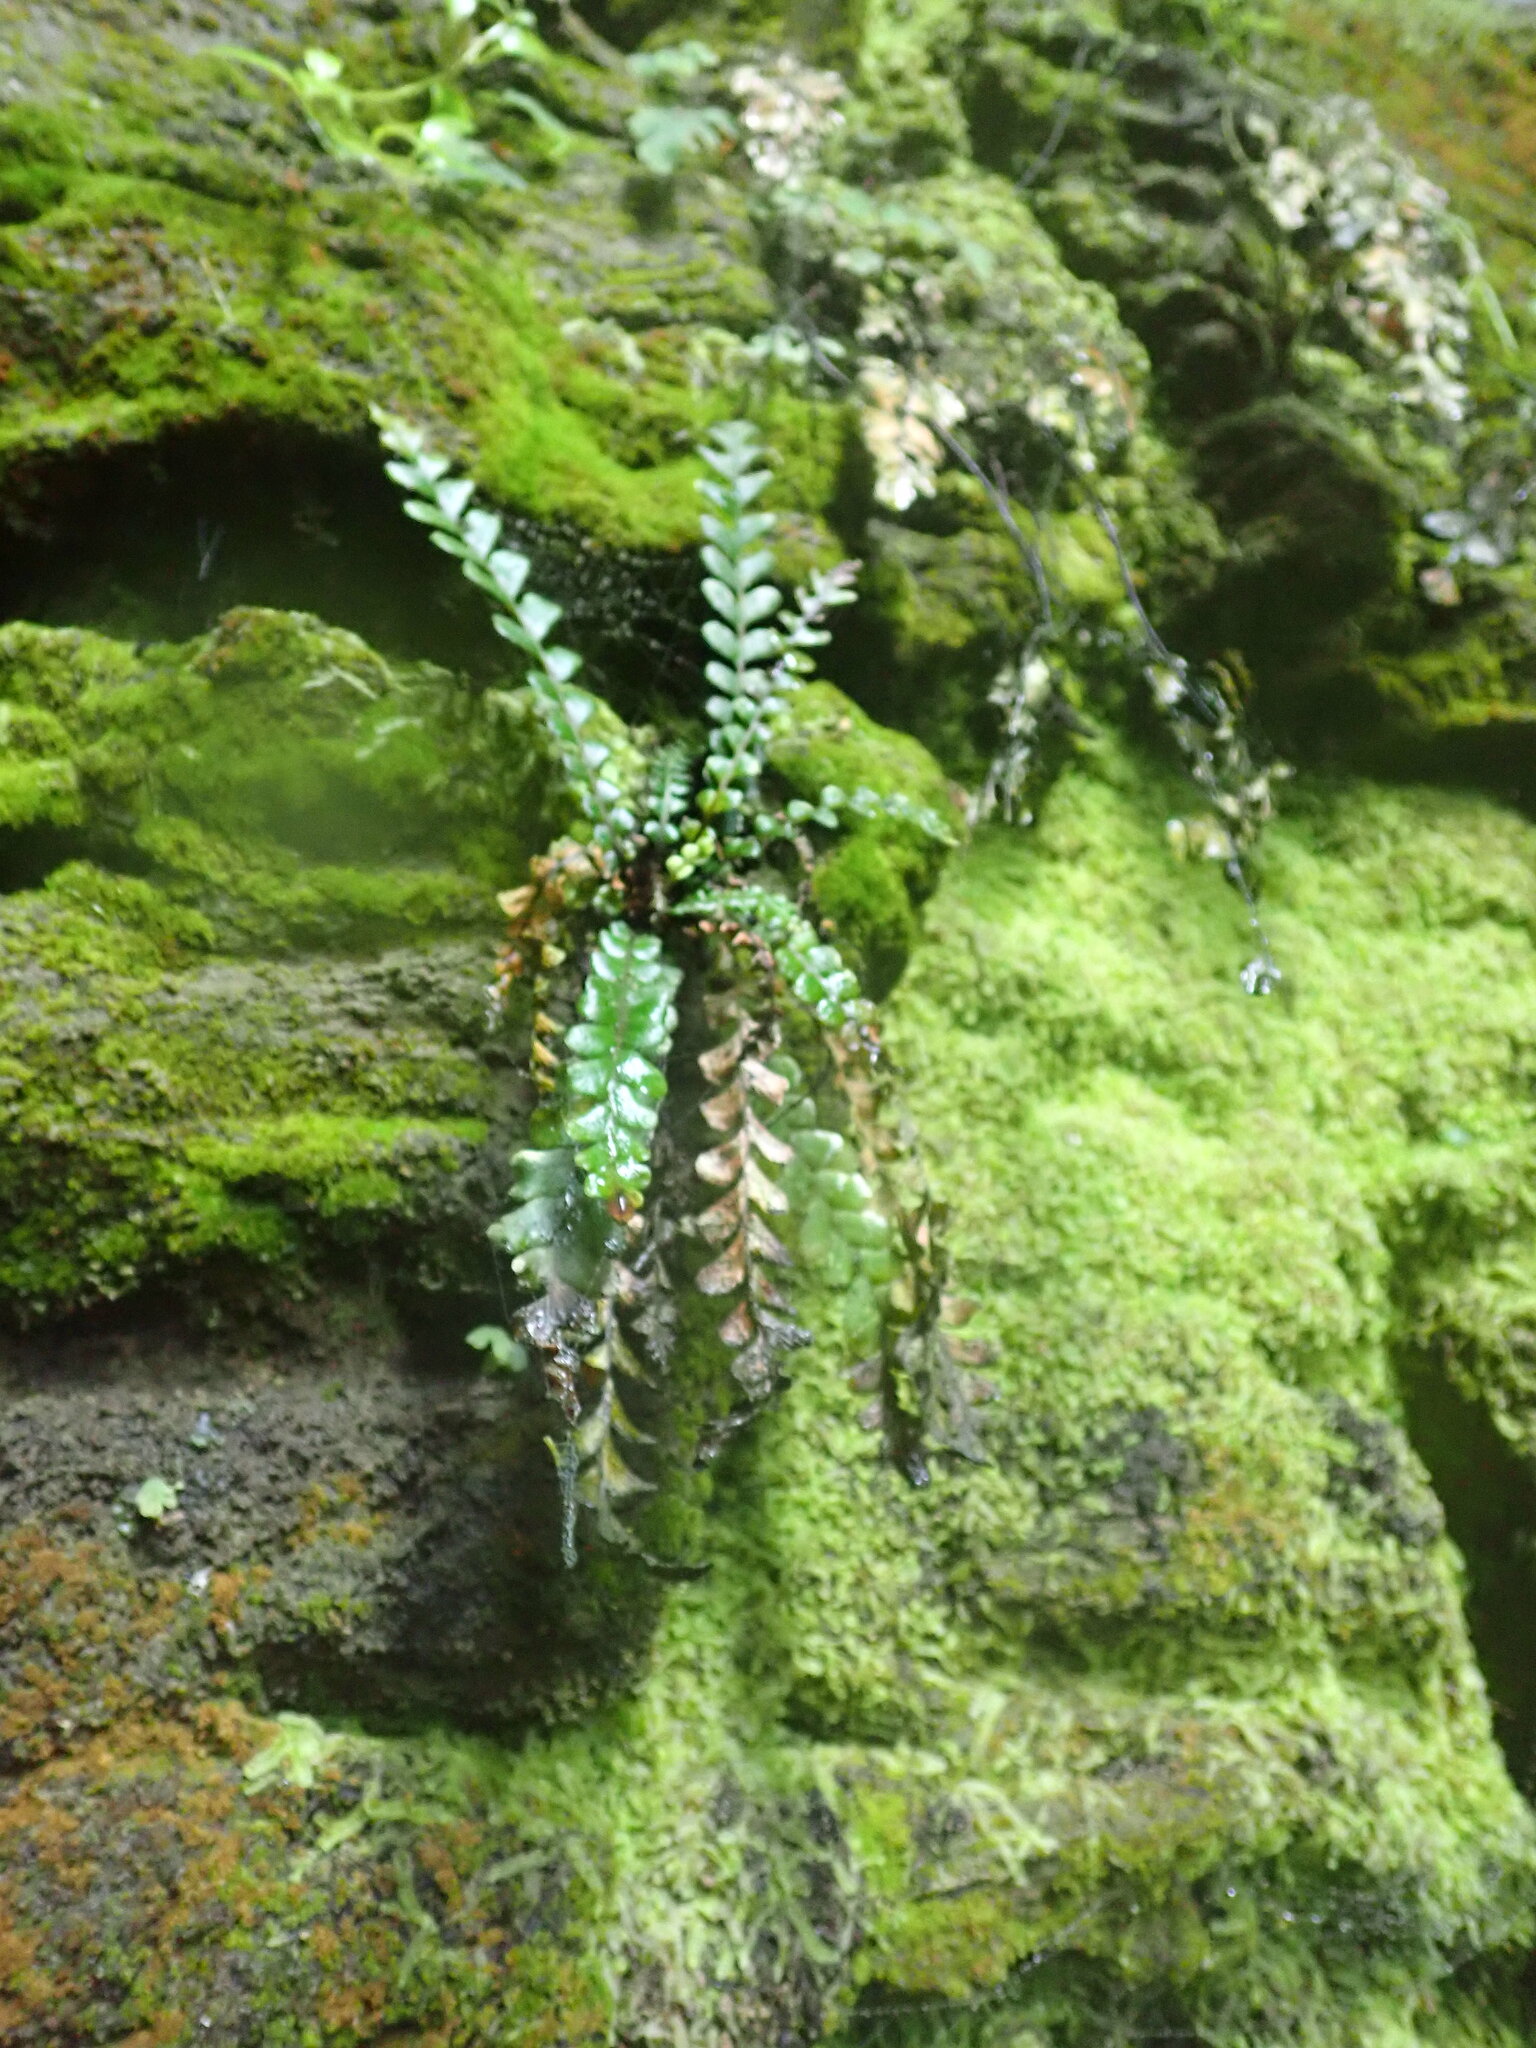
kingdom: Plantae
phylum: Tracheophyta
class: Polypodiopsida
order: Polypodiales
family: Blechnaceae
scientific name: Blechnaceae
